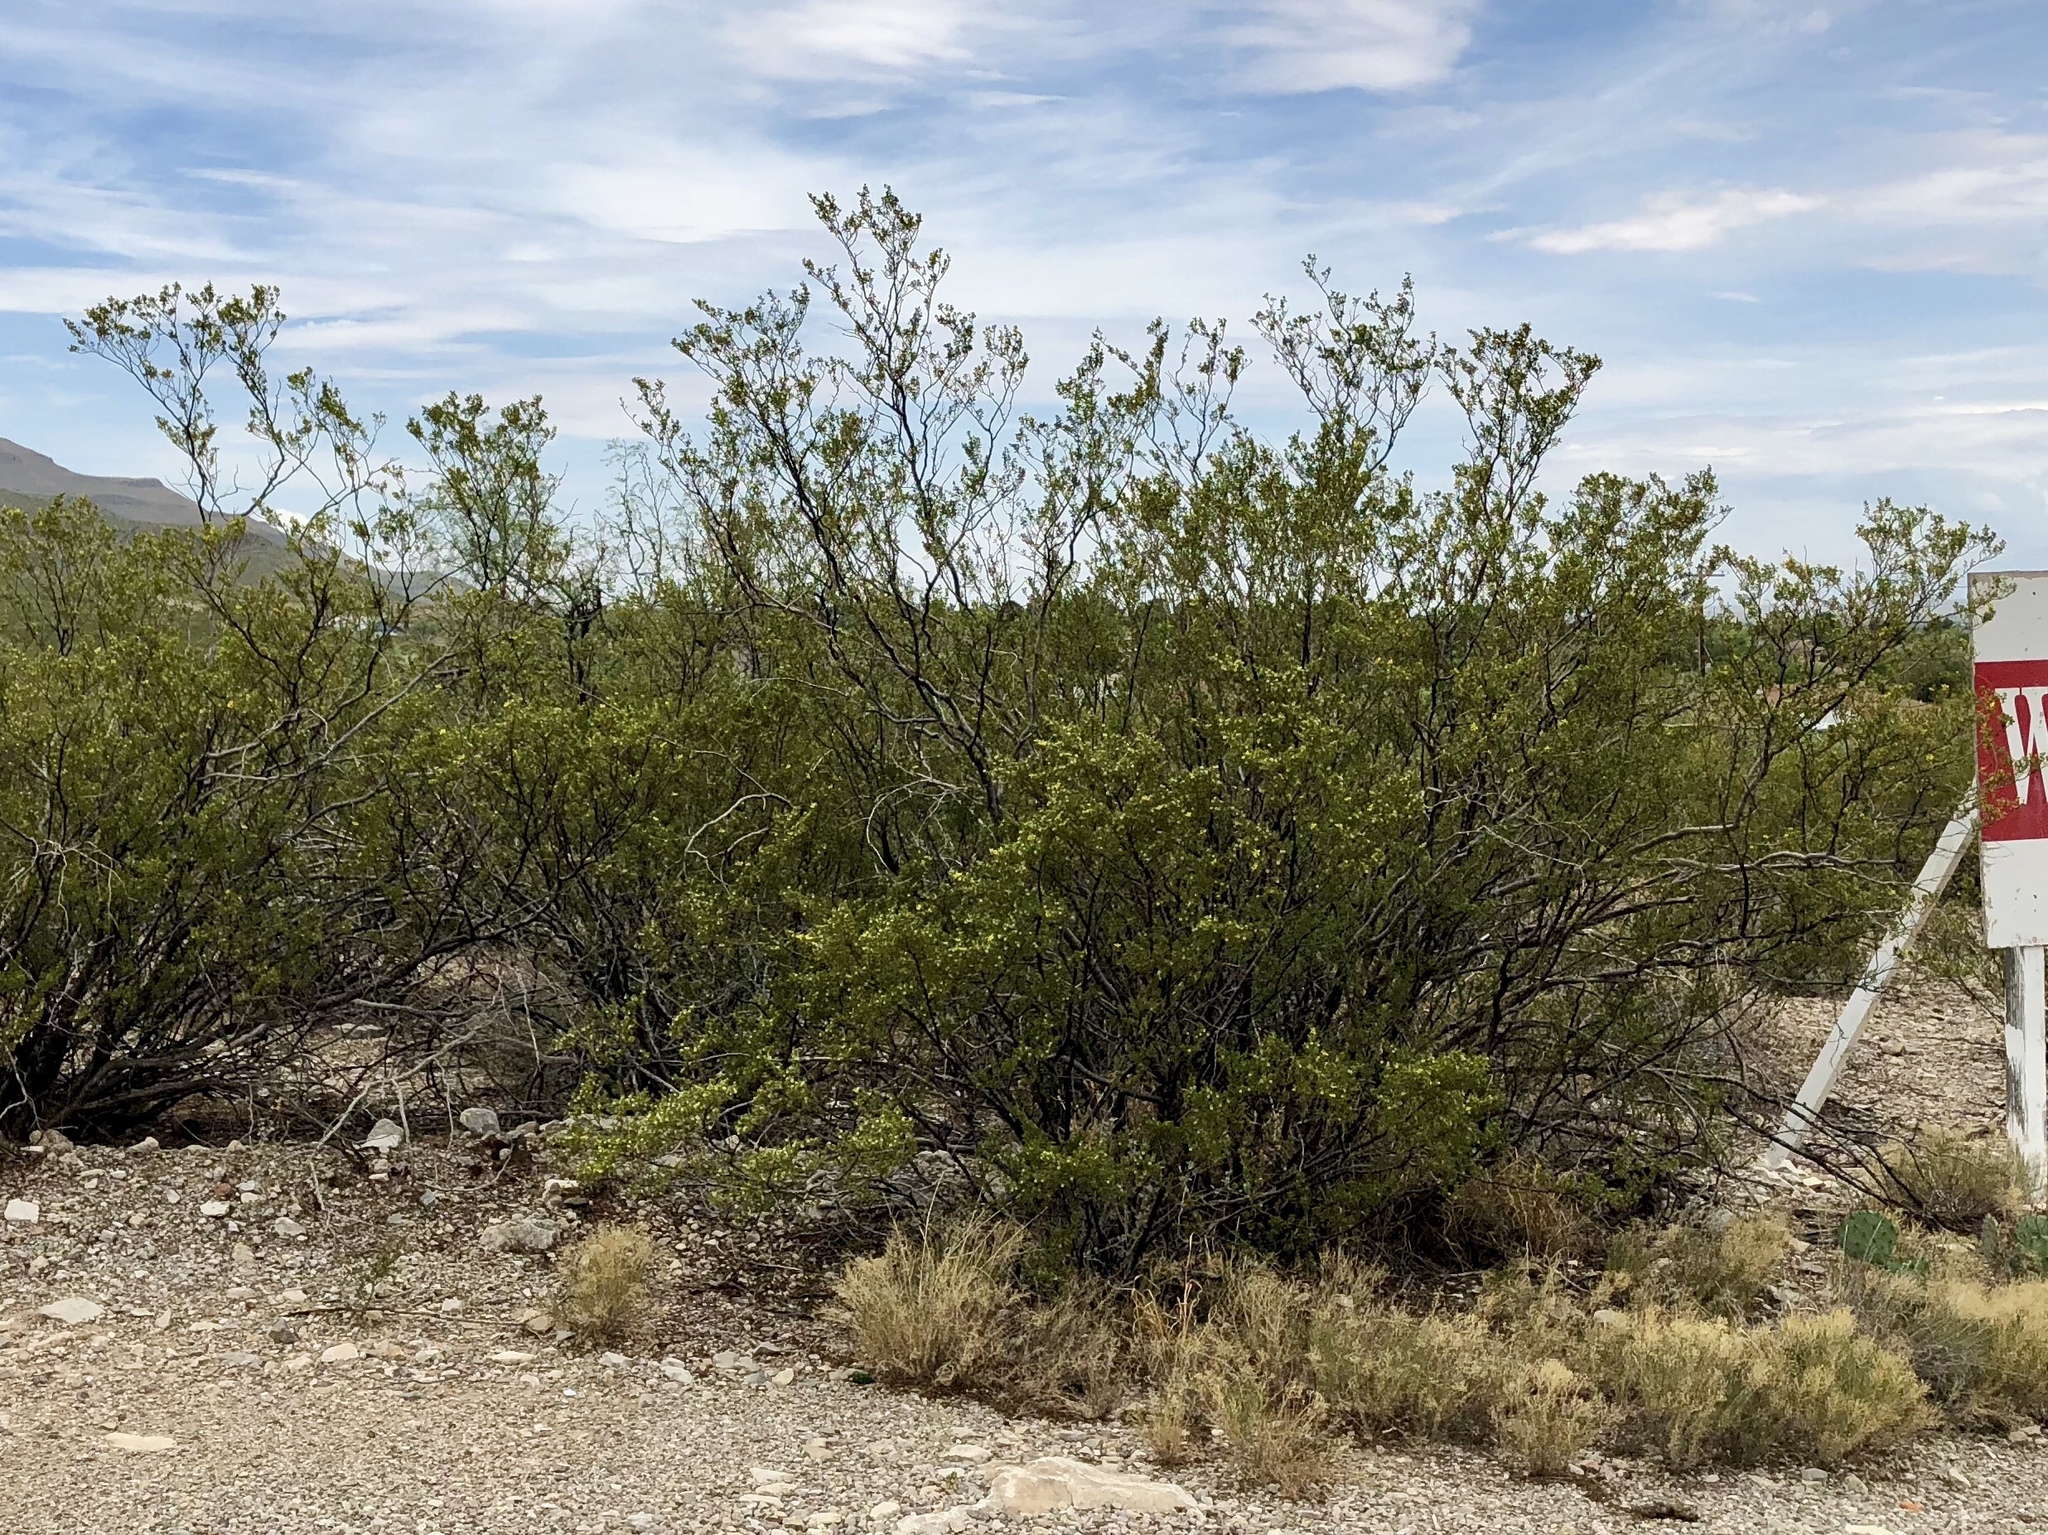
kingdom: Plantae
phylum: Tracheophyta
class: Magnoliopsida
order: Zygophyllales
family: Zygophyllaceae
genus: Larrea
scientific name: Larrea tridentata
